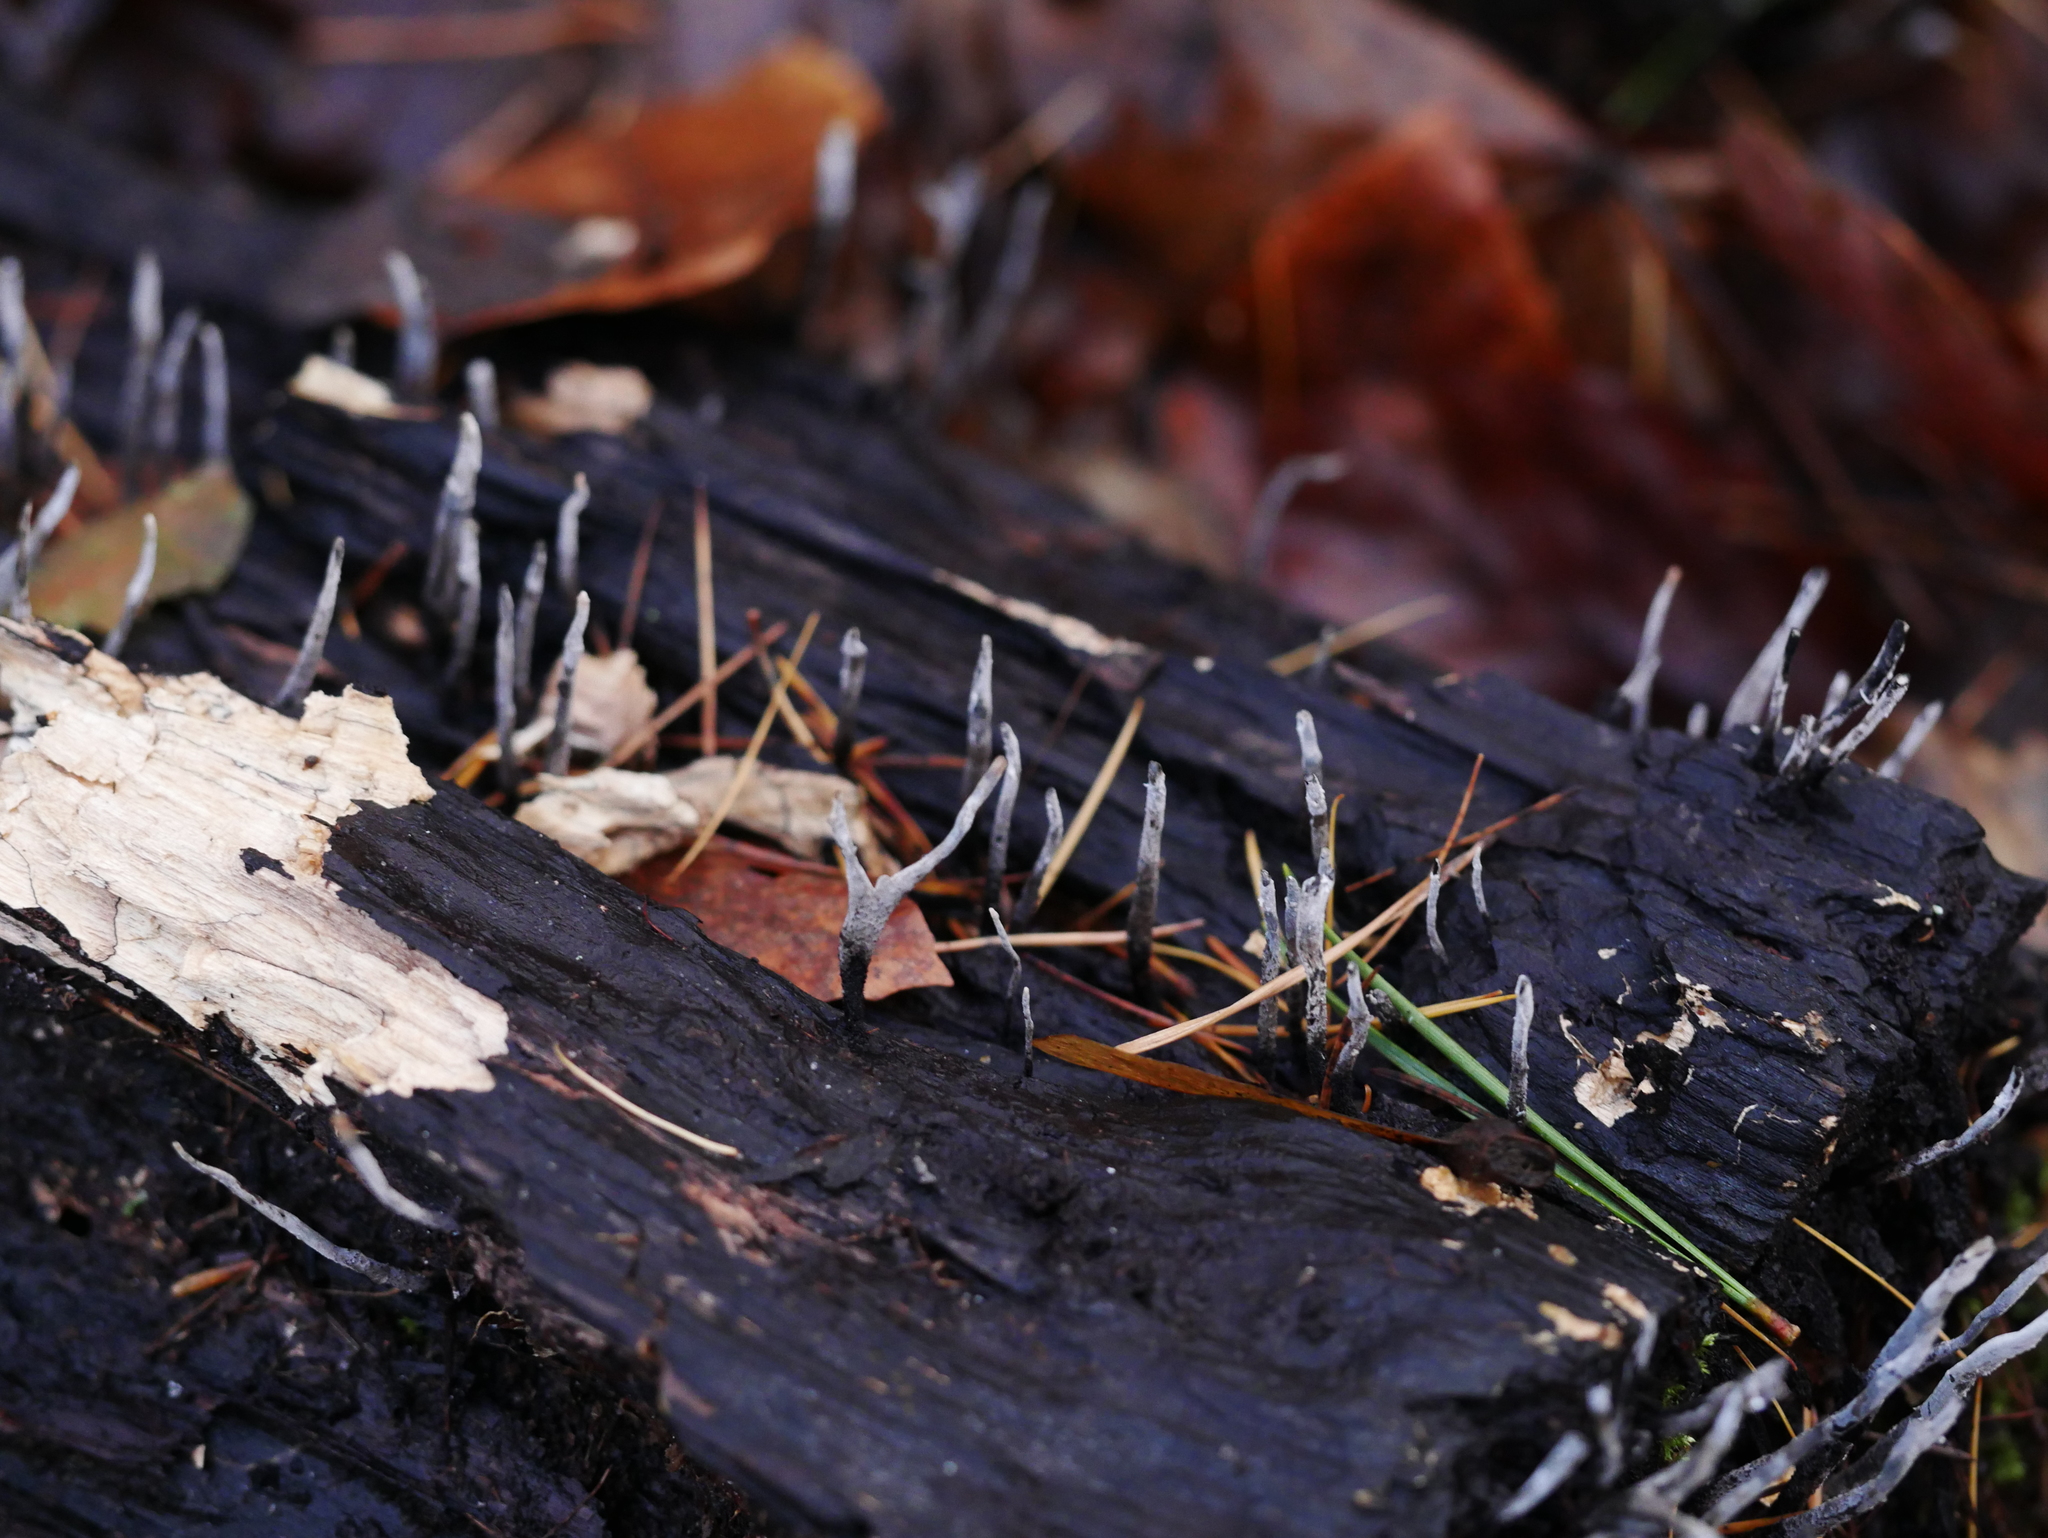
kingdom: Fungi
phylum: Ascomycota
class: Sordariomycetes
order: Xylariales
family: Xylariaceae
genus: Xylaria
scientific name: Xylaria hypoxylon
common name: Candle-snuff fungus
